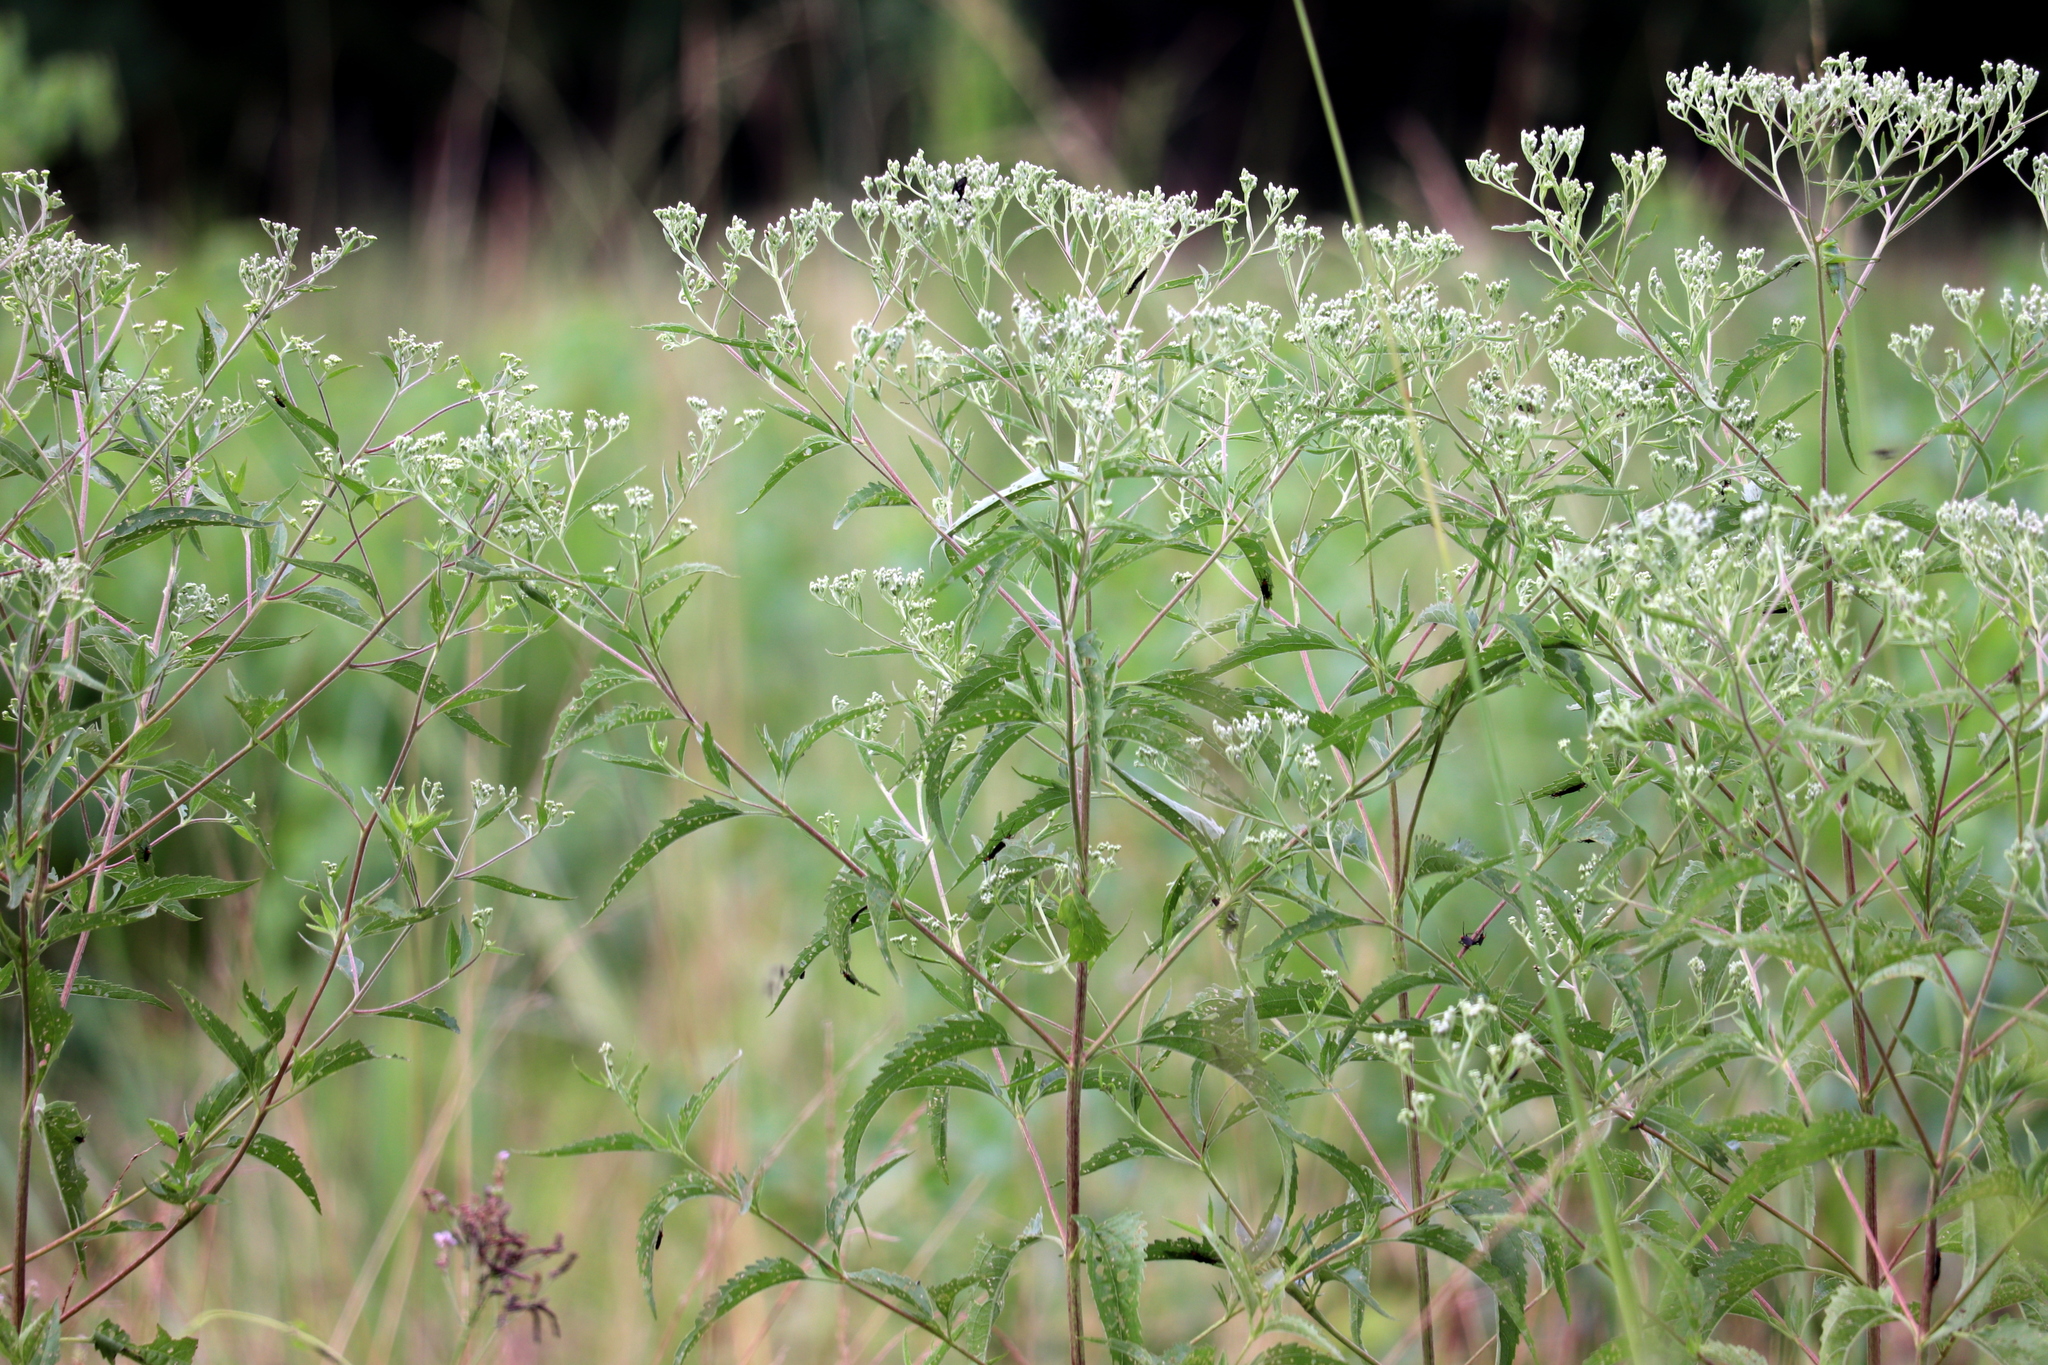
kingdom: Plantae
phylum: Tracheophyta
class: Magnoliopsida
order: Asterales
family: Asteraceae
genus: Eupatorium
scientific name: Eupatorium serotinum
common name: Late boneset
